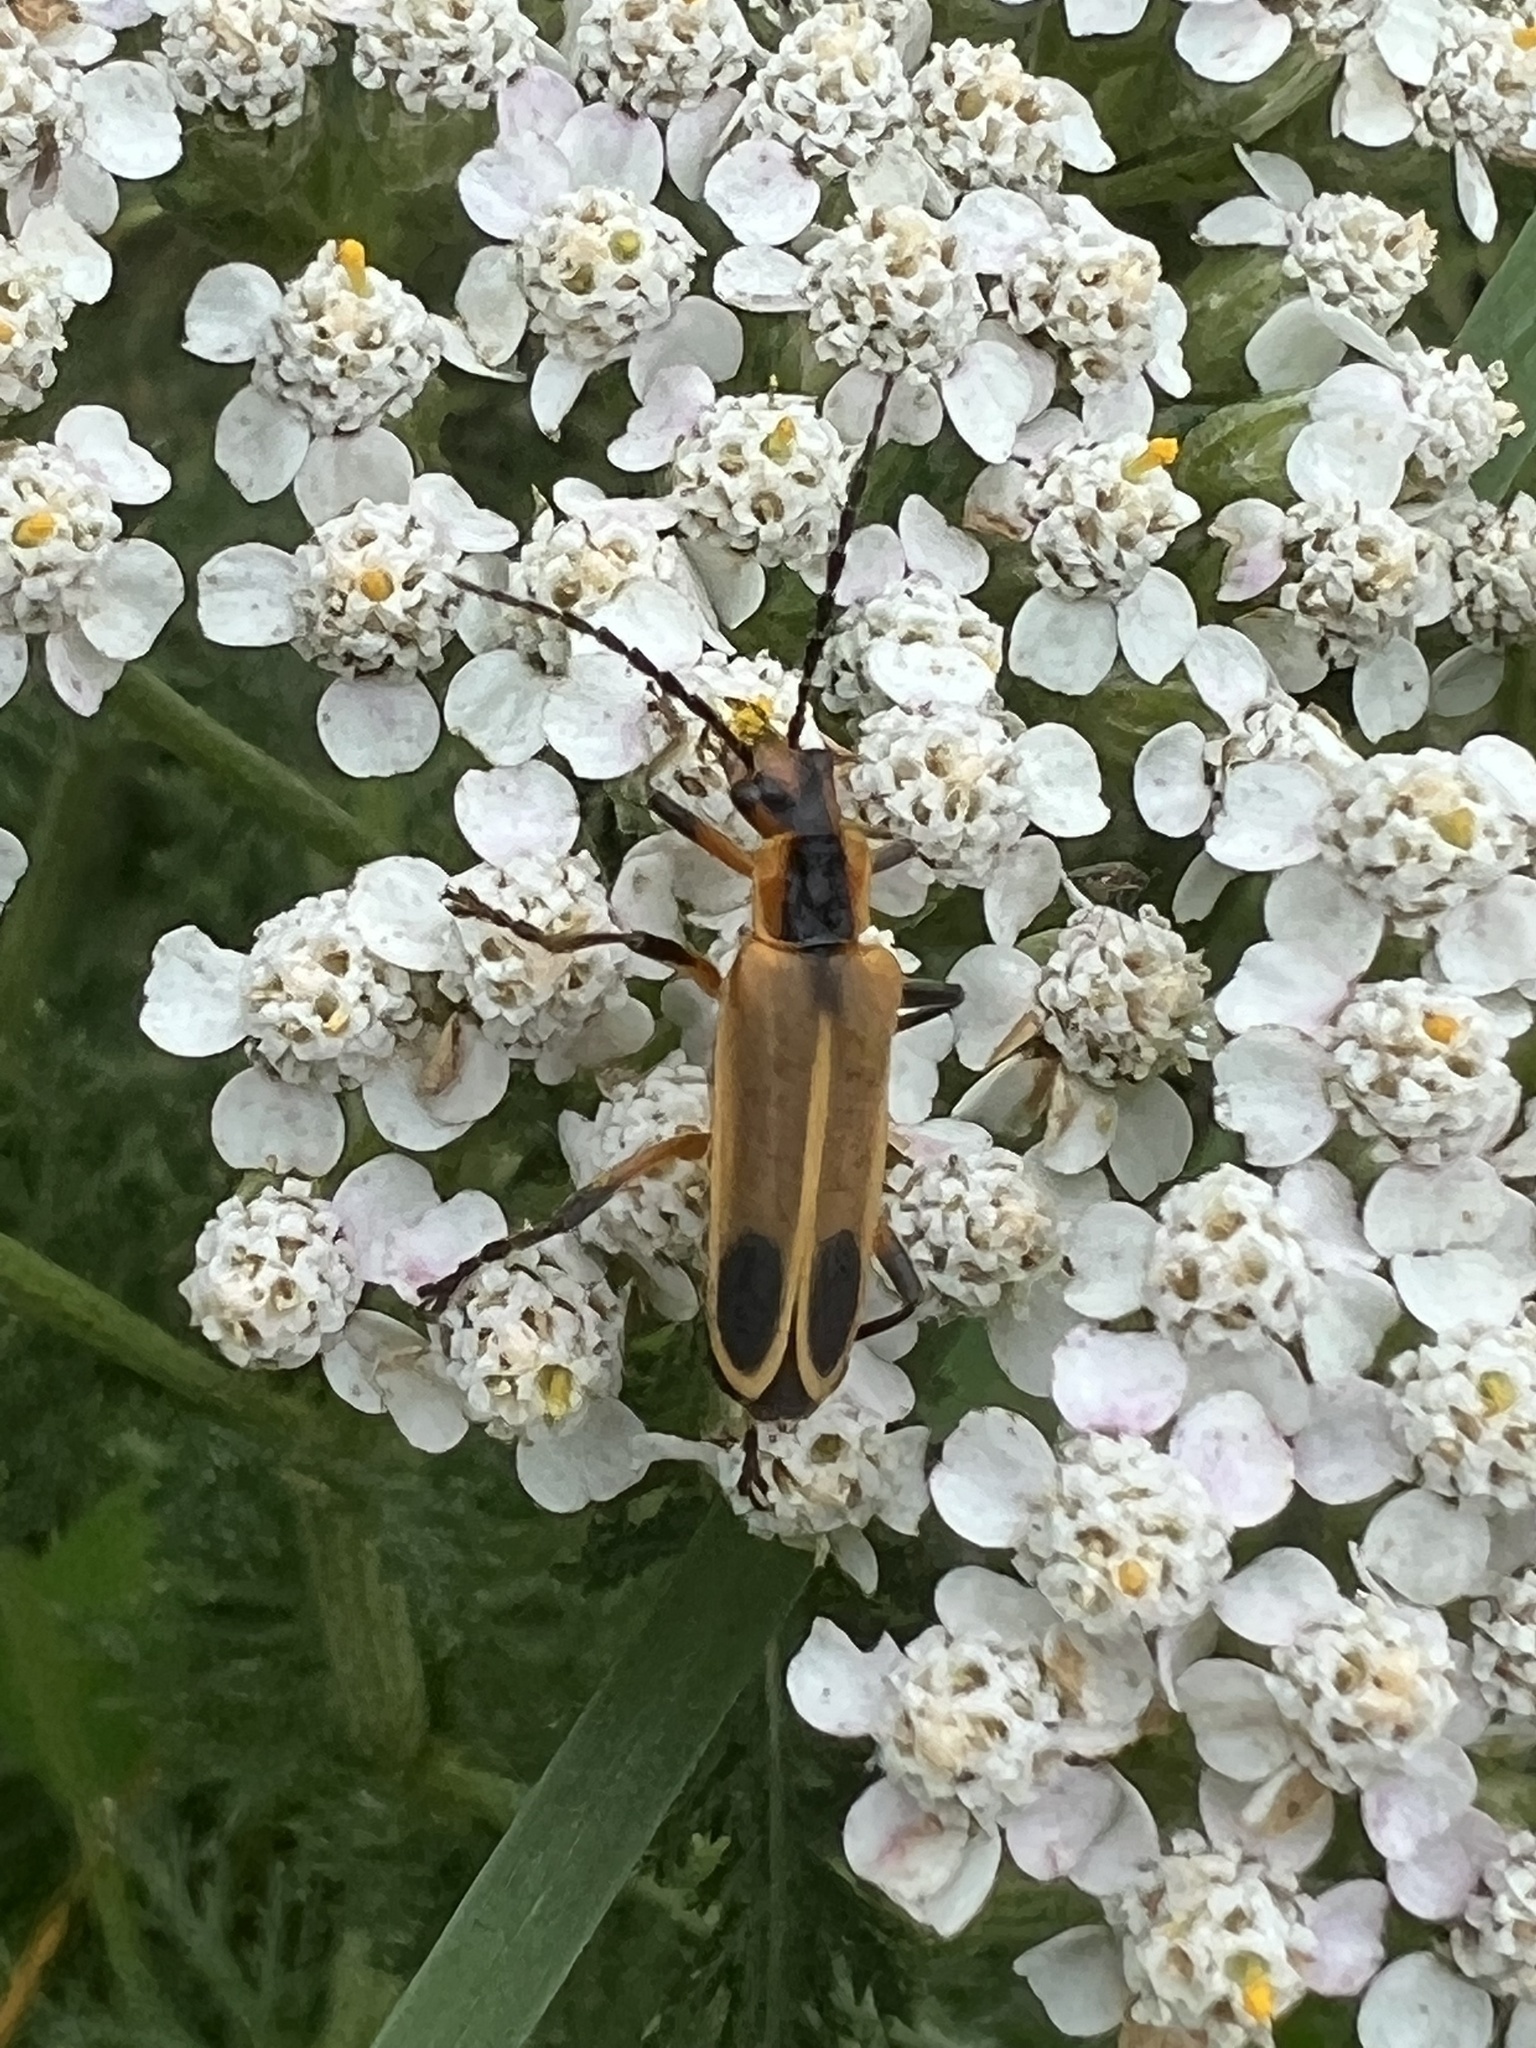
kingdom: Animalia
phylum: Arthropoda
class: Insecta
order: Coleoptera
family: Cantharidae
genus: Chauliognathus
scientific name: Chauliognathus marginatus
